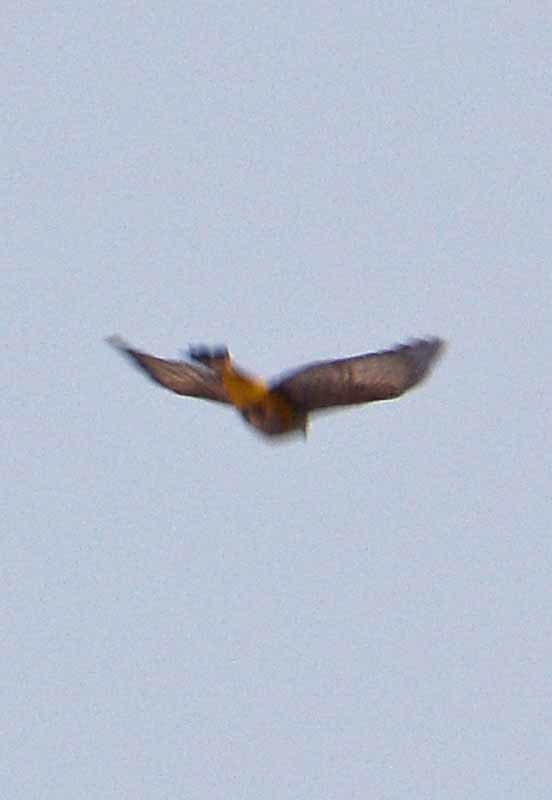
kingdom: Animalia
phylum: Chordata
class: Aves
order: Passeriformes
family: Ptilogonatidae
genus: Ptilogonys
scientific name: Ptilogonys cinereus
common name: Gray silky-flycatcher
